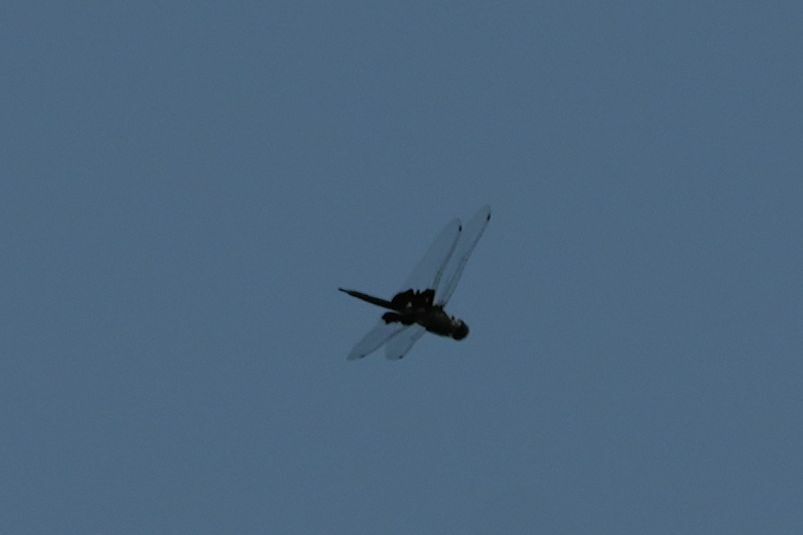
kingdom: Animalia
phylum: Arthropoda
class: Insecta
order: Odonata
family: Libellulidae
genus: Tramea
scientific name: Tramea lacerata
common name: Black saddlebags
